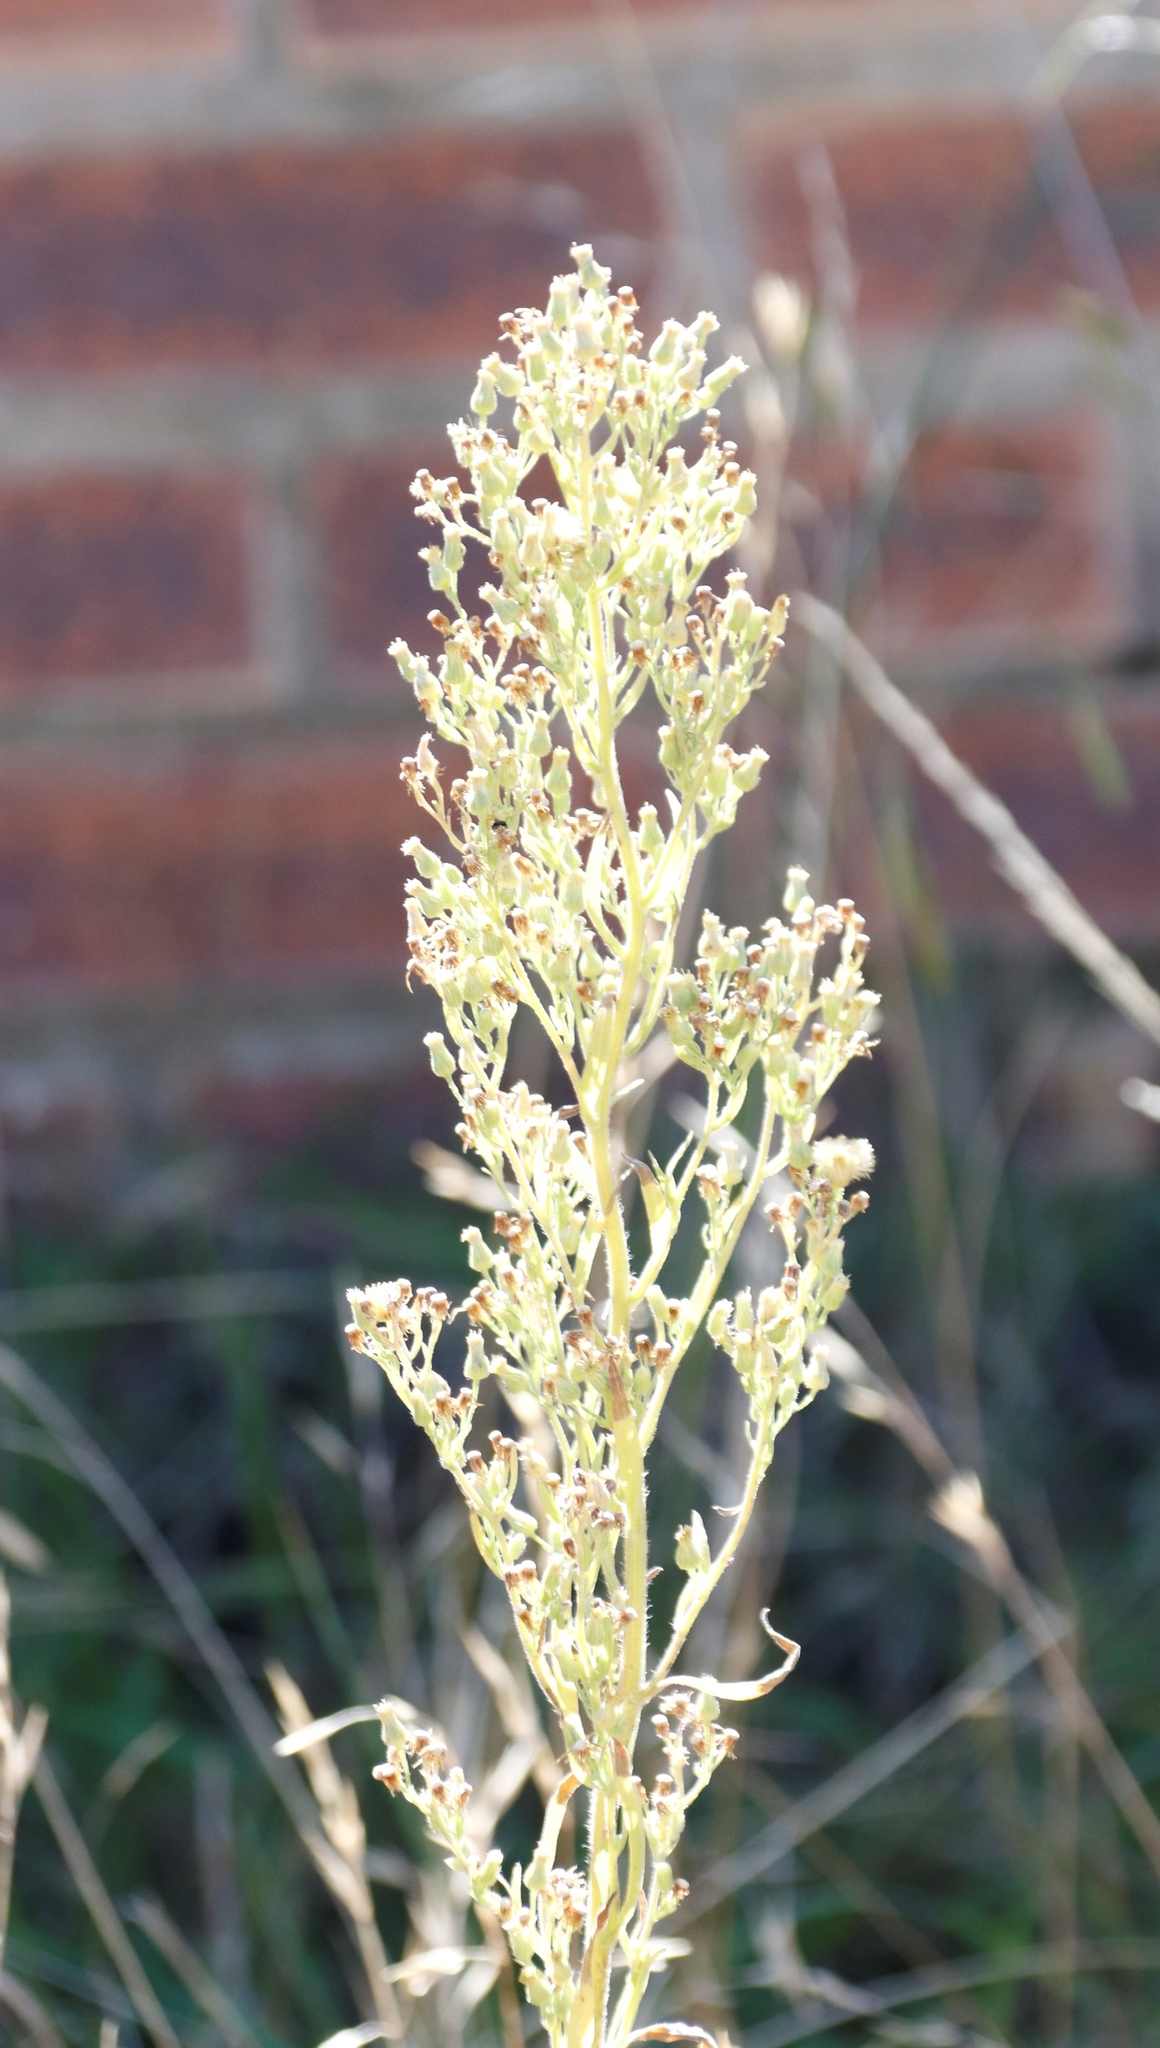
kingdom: Plantae
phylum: Tracheophyta
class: Magnoliopsida
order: Asterales
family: Asteraceae
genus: Erigeron
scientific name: Erigeron sumatrensis
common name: Daisy
